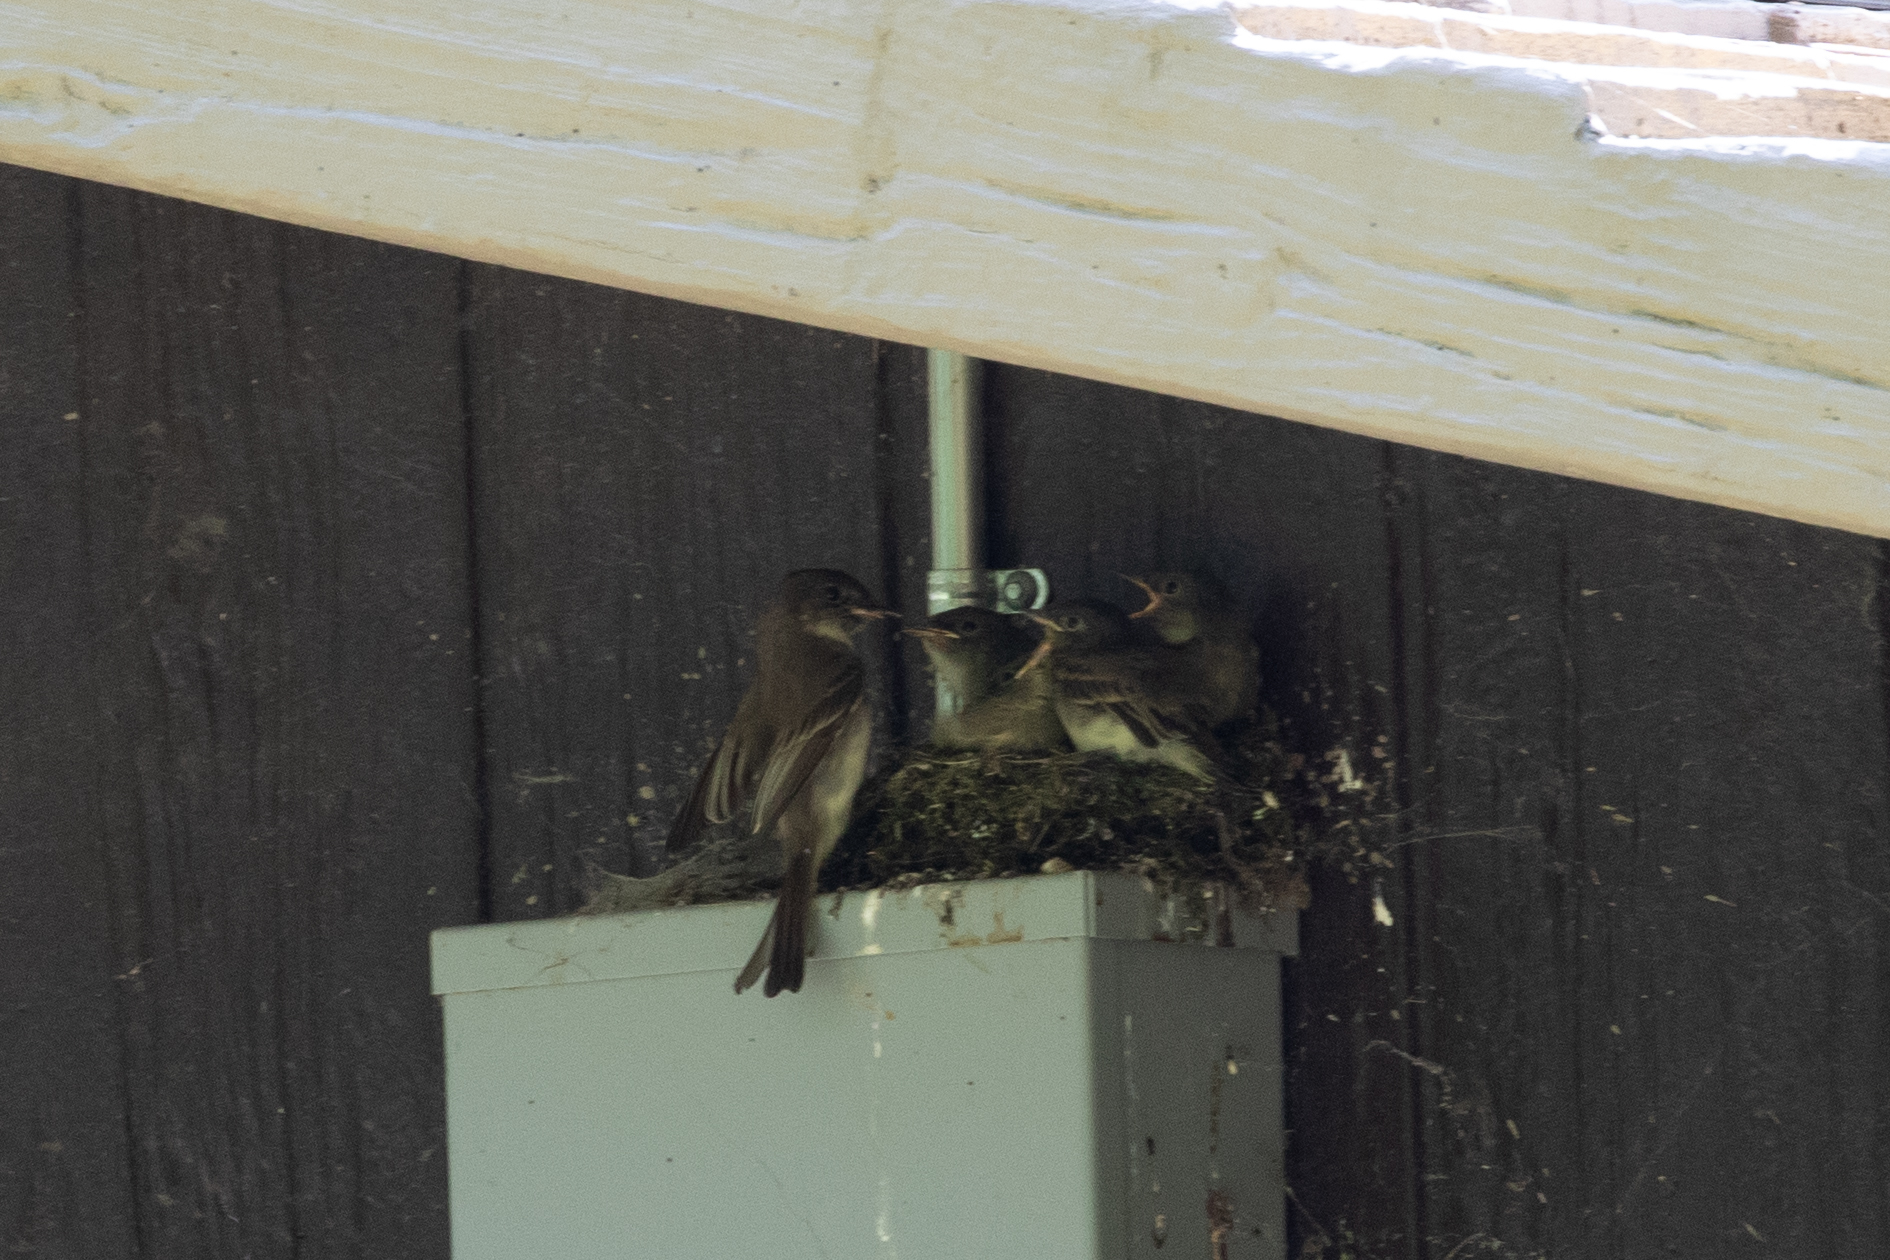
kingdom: Animalia
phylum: Chordata
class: Aves
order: Passeriformes
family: Tyrannidae
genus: Sayornis
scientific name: Sayornis phoebe
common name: Eastern phoebe
